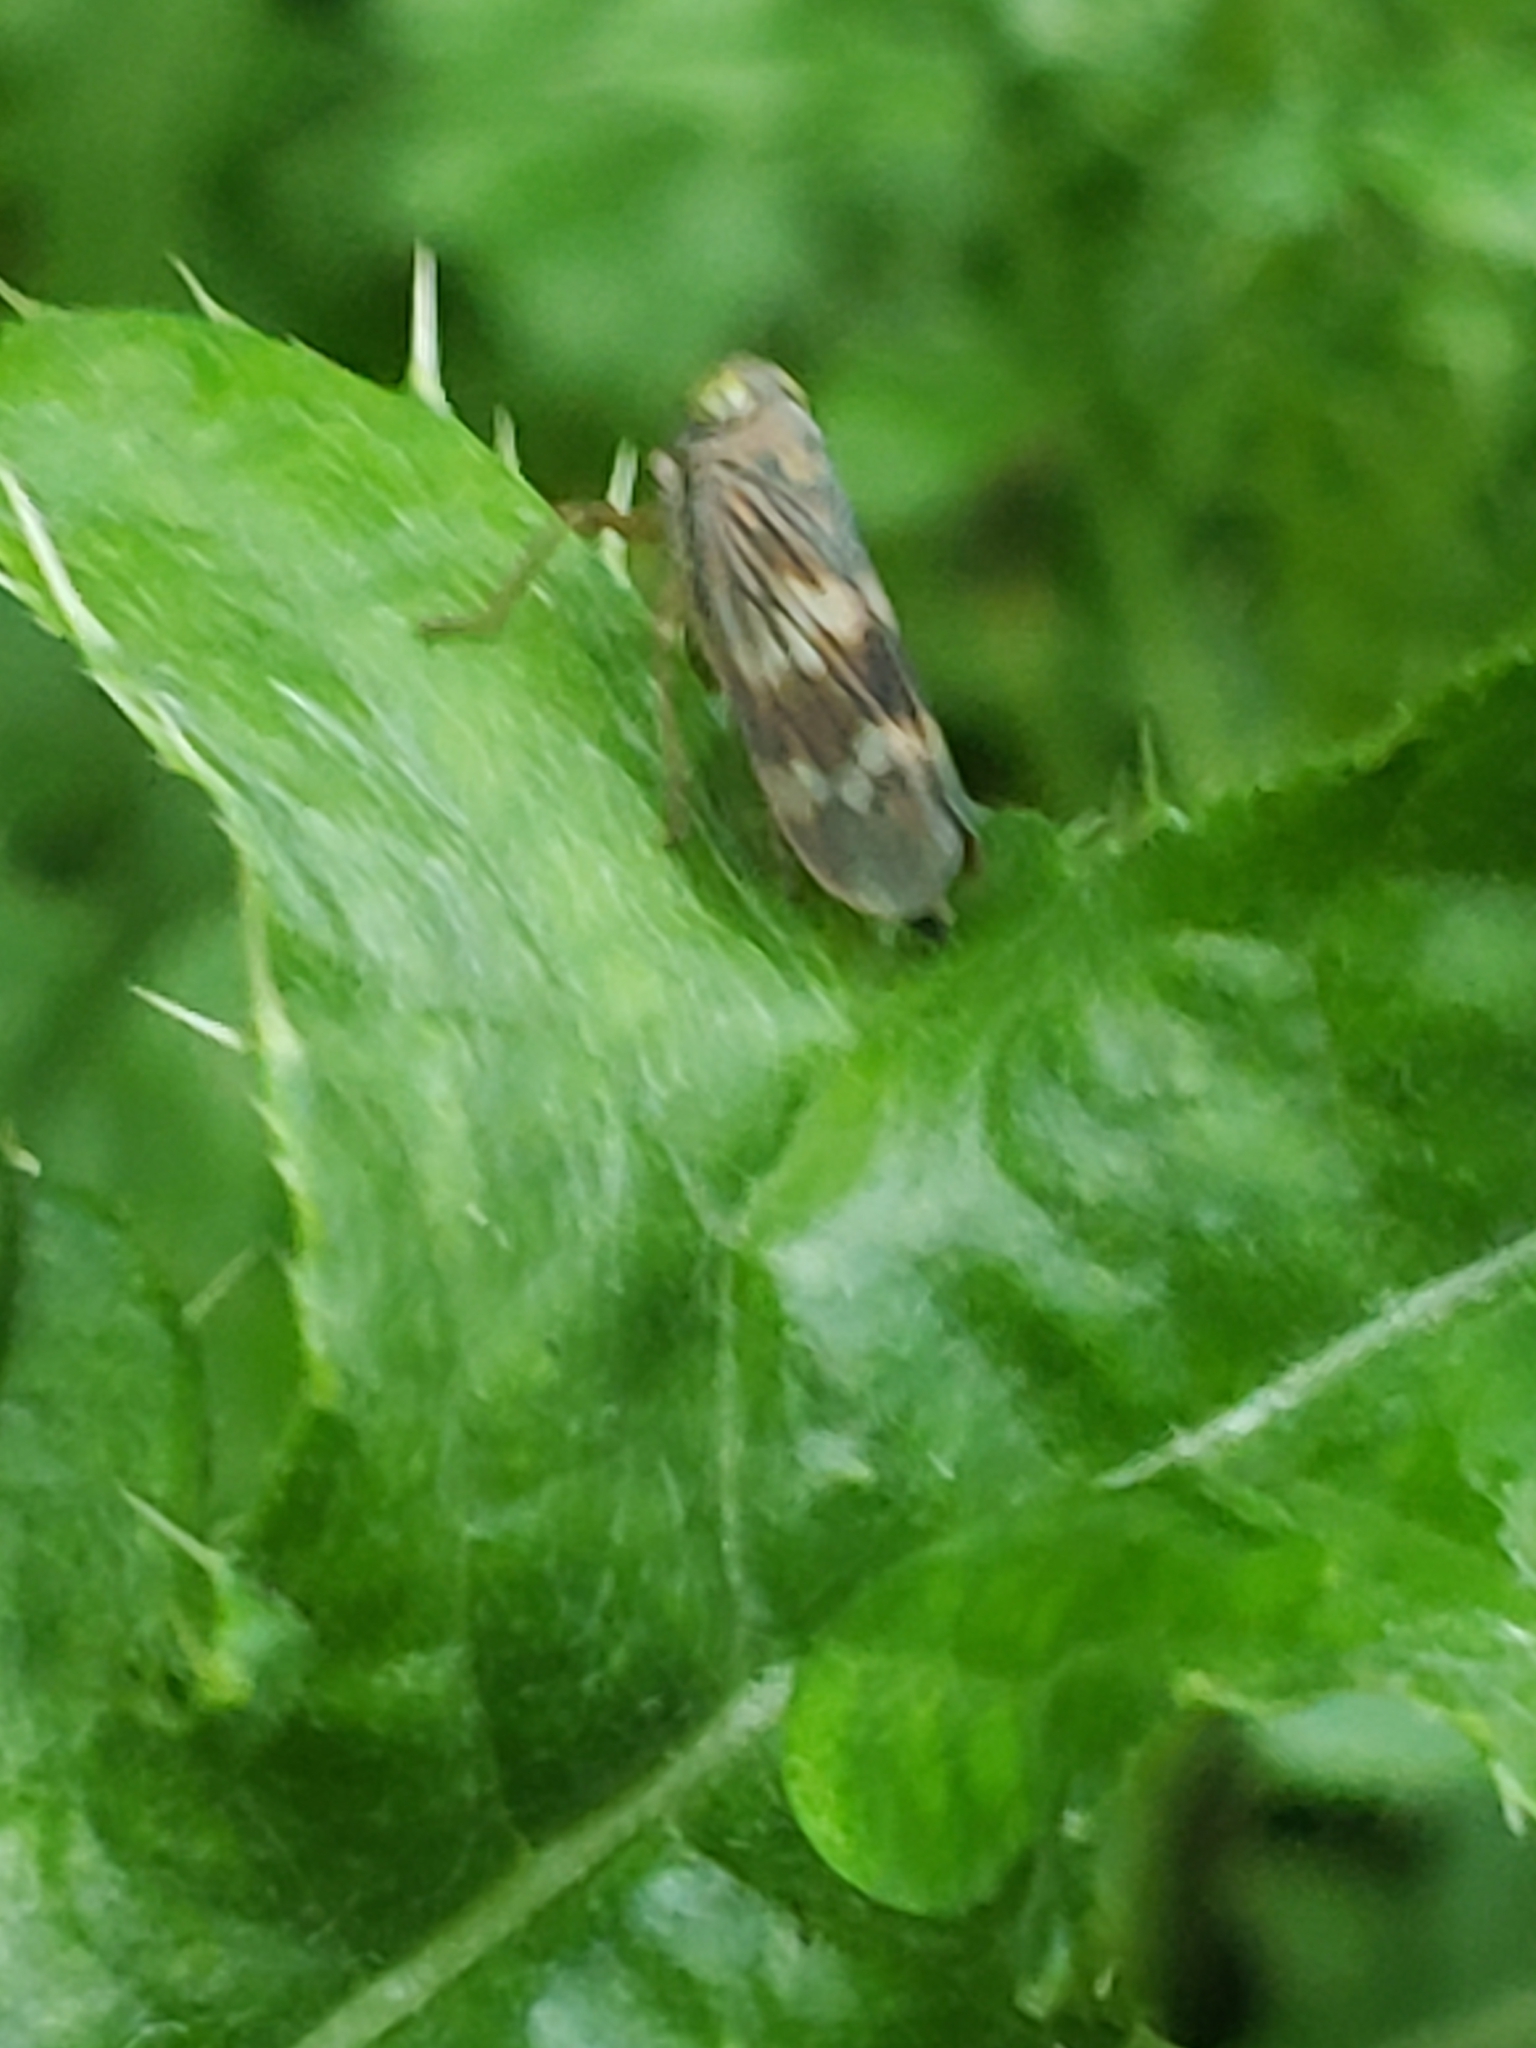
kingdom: Animalia
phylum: Arthropoda
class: Insecta
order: Hemiptera
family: Cicadellidae
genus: Jikradia
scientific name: Jikradia olitoria
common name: Coppery leafhopper
